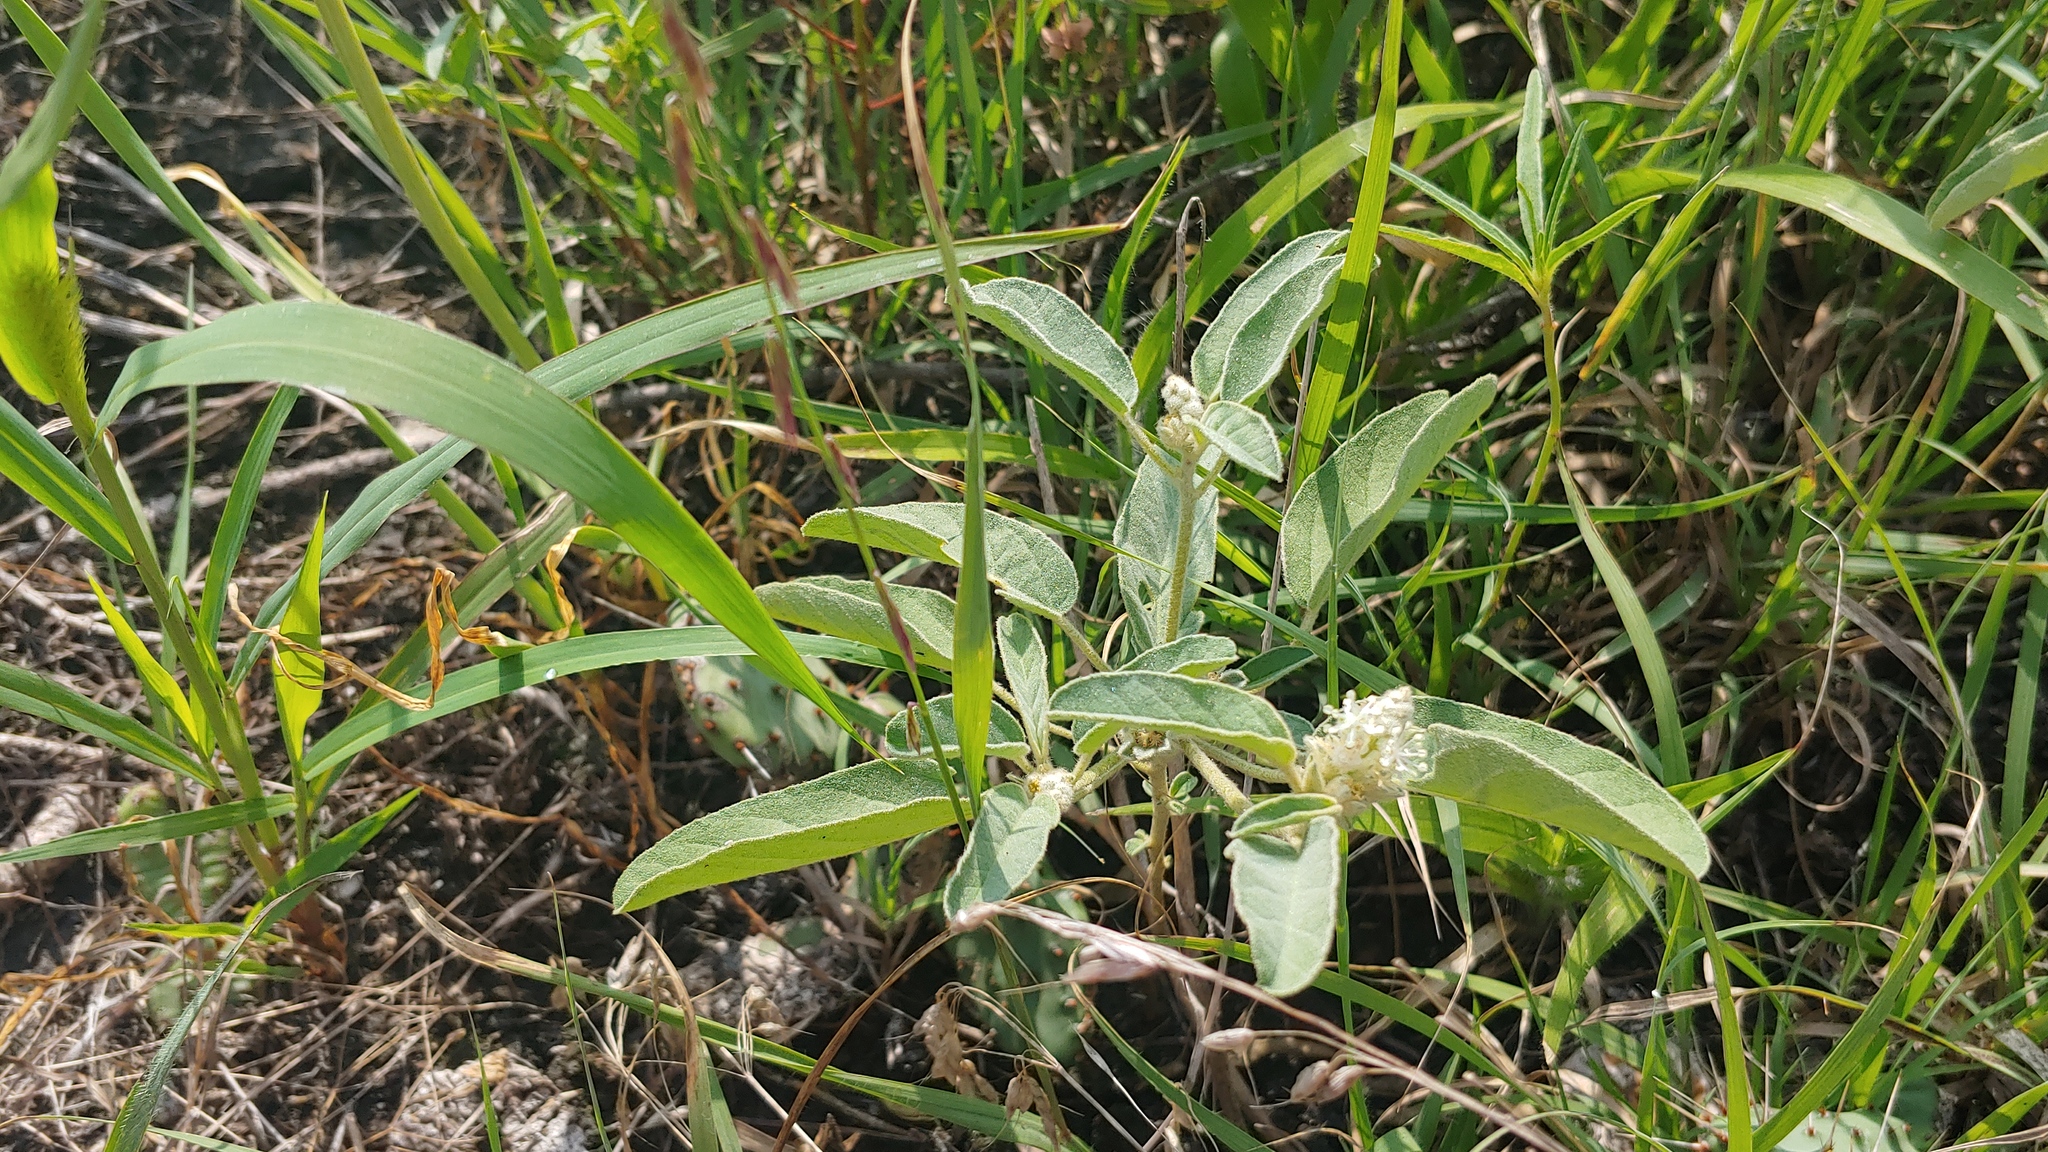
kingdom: Plantae
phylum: Tracheophyta
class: Magnoliopsida
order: Malpighiales
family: Euphorbiaceae
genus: Croton
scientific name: Croton capitatus
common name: Woolly croton
